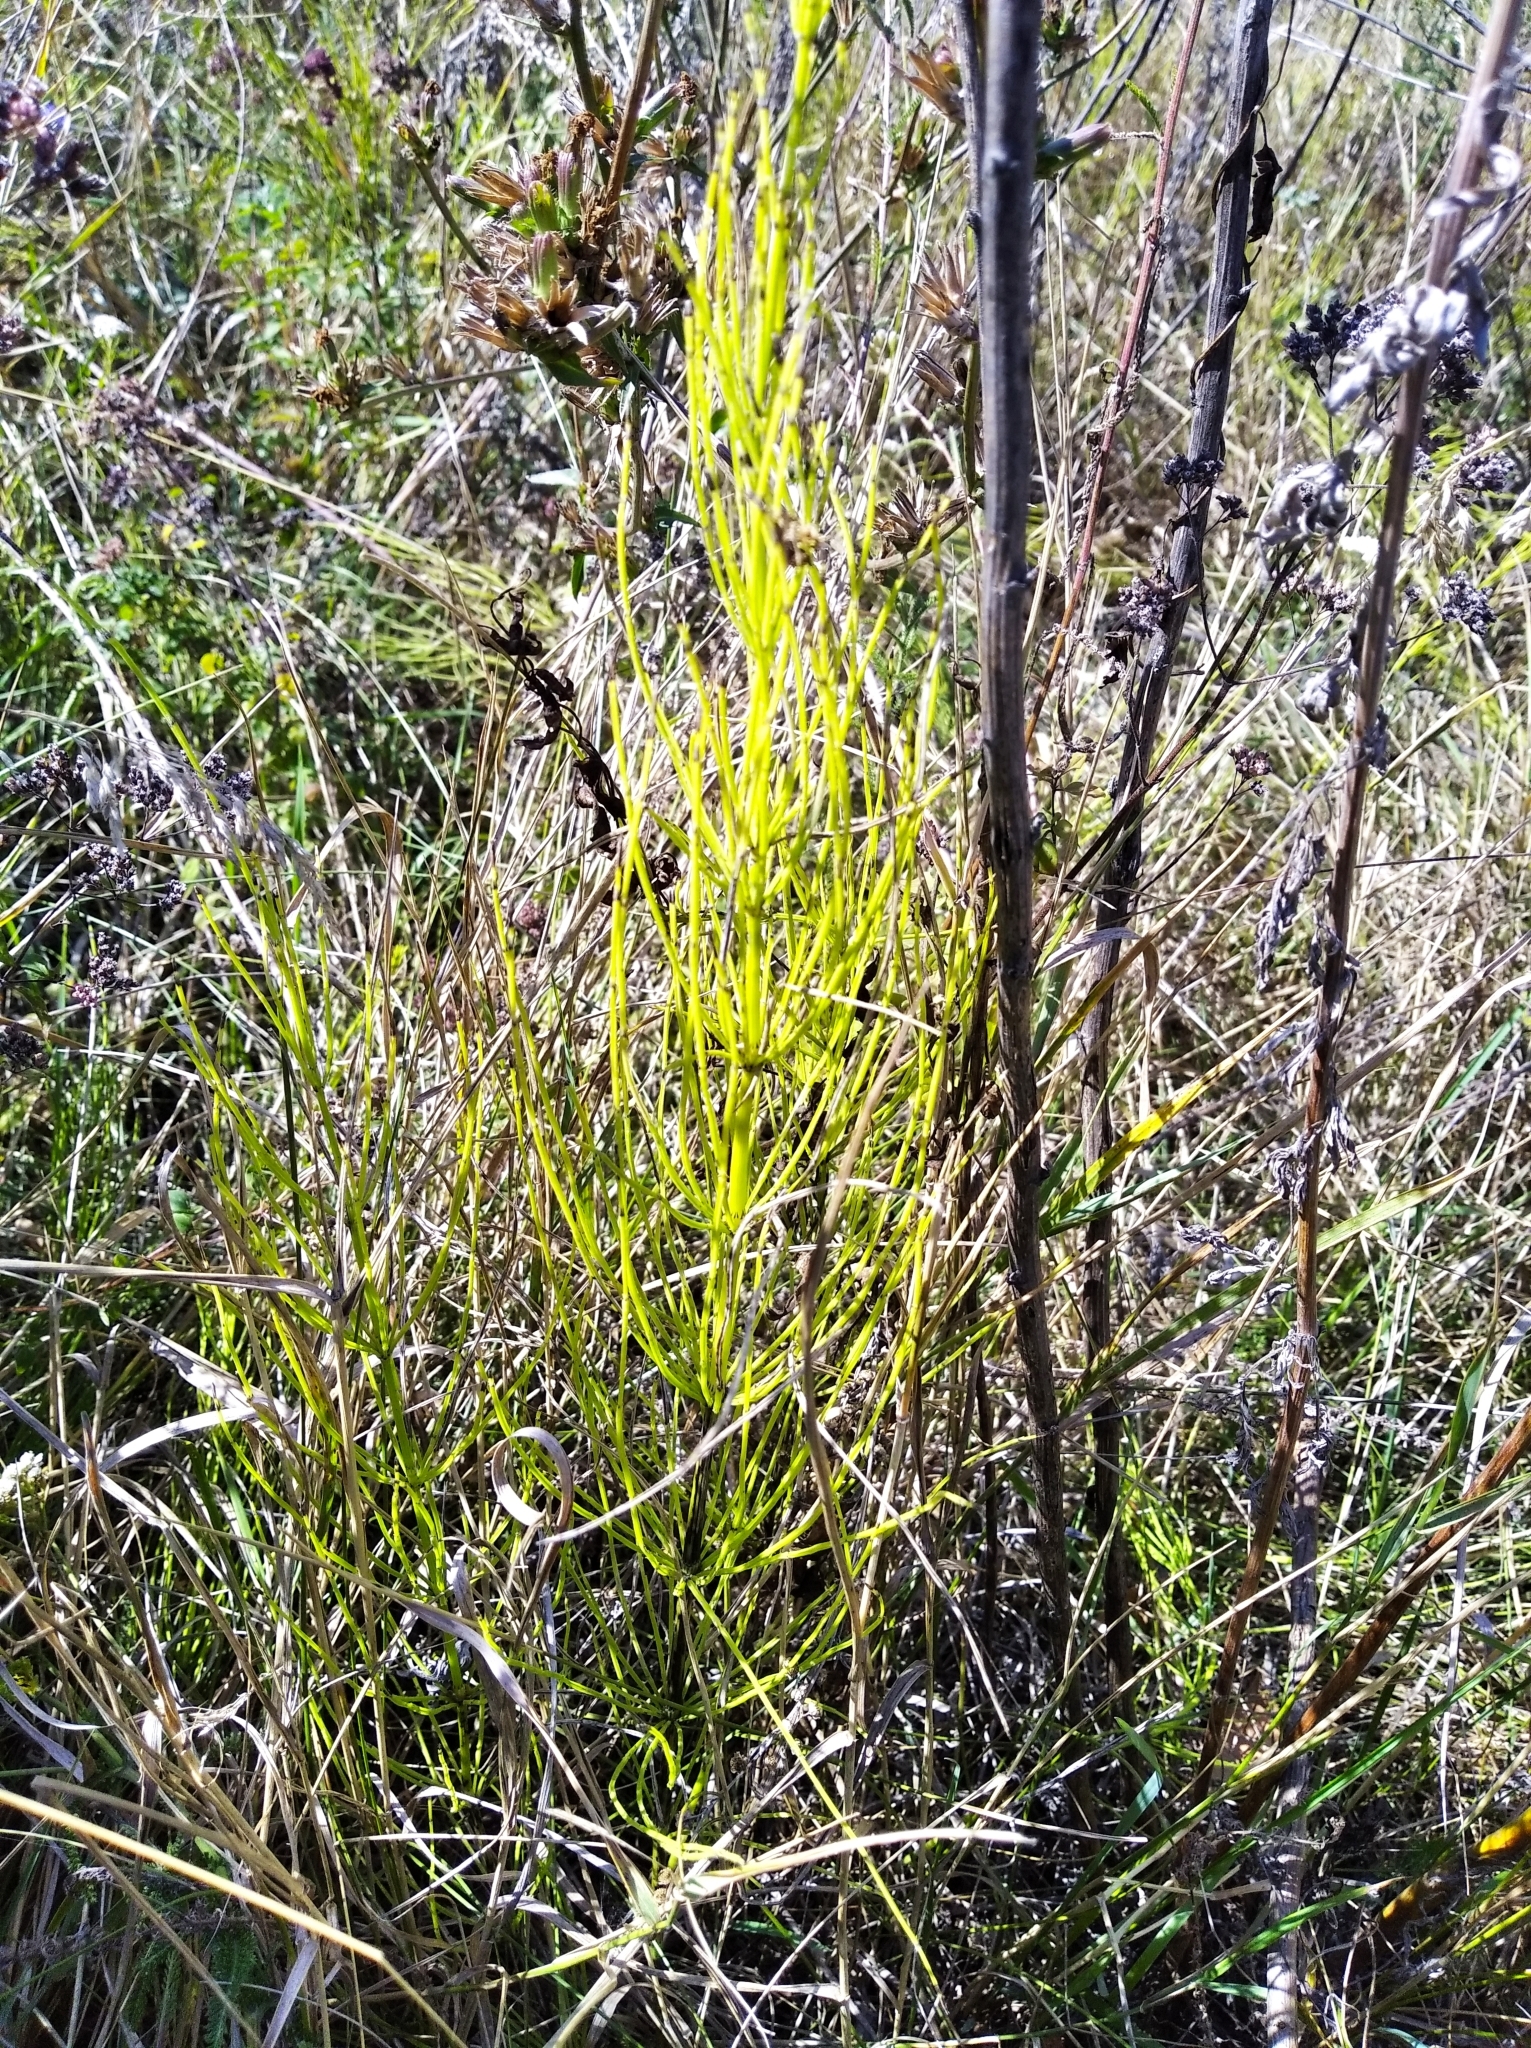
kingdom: Plantae
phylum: Tracheophyta
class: Polypodiopsida
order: Equisetales
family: Equisetaceae
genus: Equisetum
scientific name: Equisetum arvense
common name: Field horsetail
